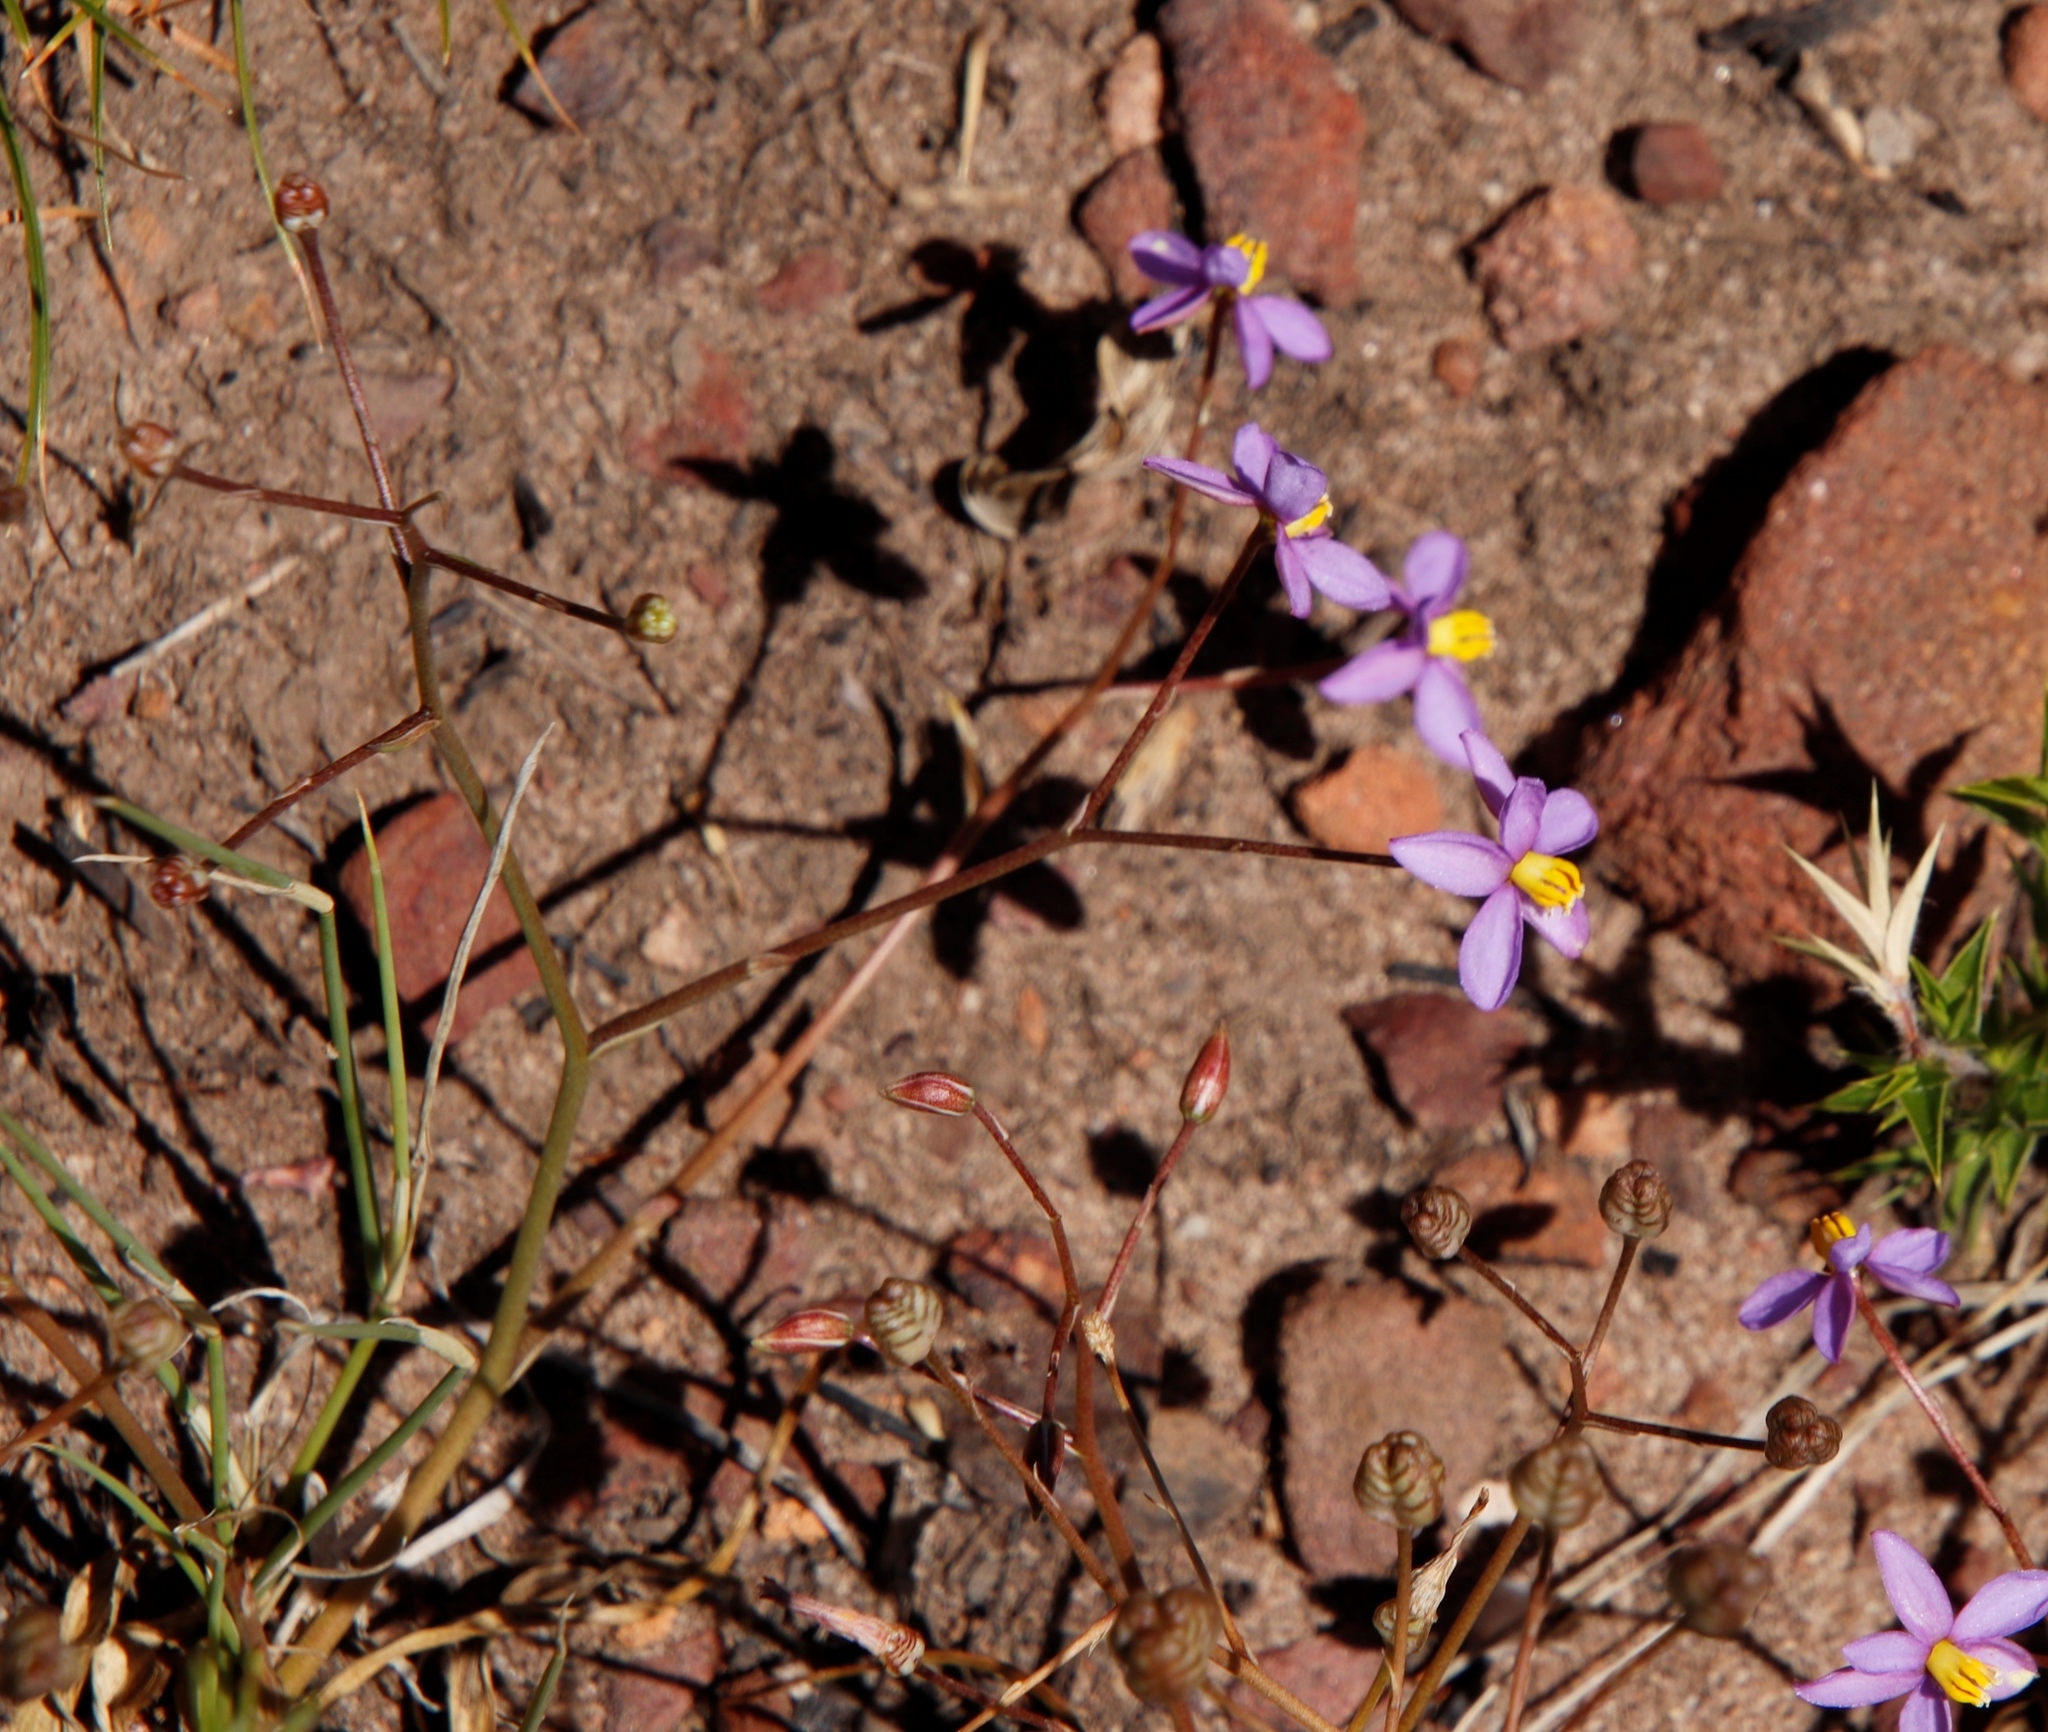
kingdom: Plantae
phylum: Tracheophyta
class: Liliopsida
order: Asparagales
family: Tecophilaeaceae
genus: Cyanella
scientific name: Cyanella hyacinthoides
